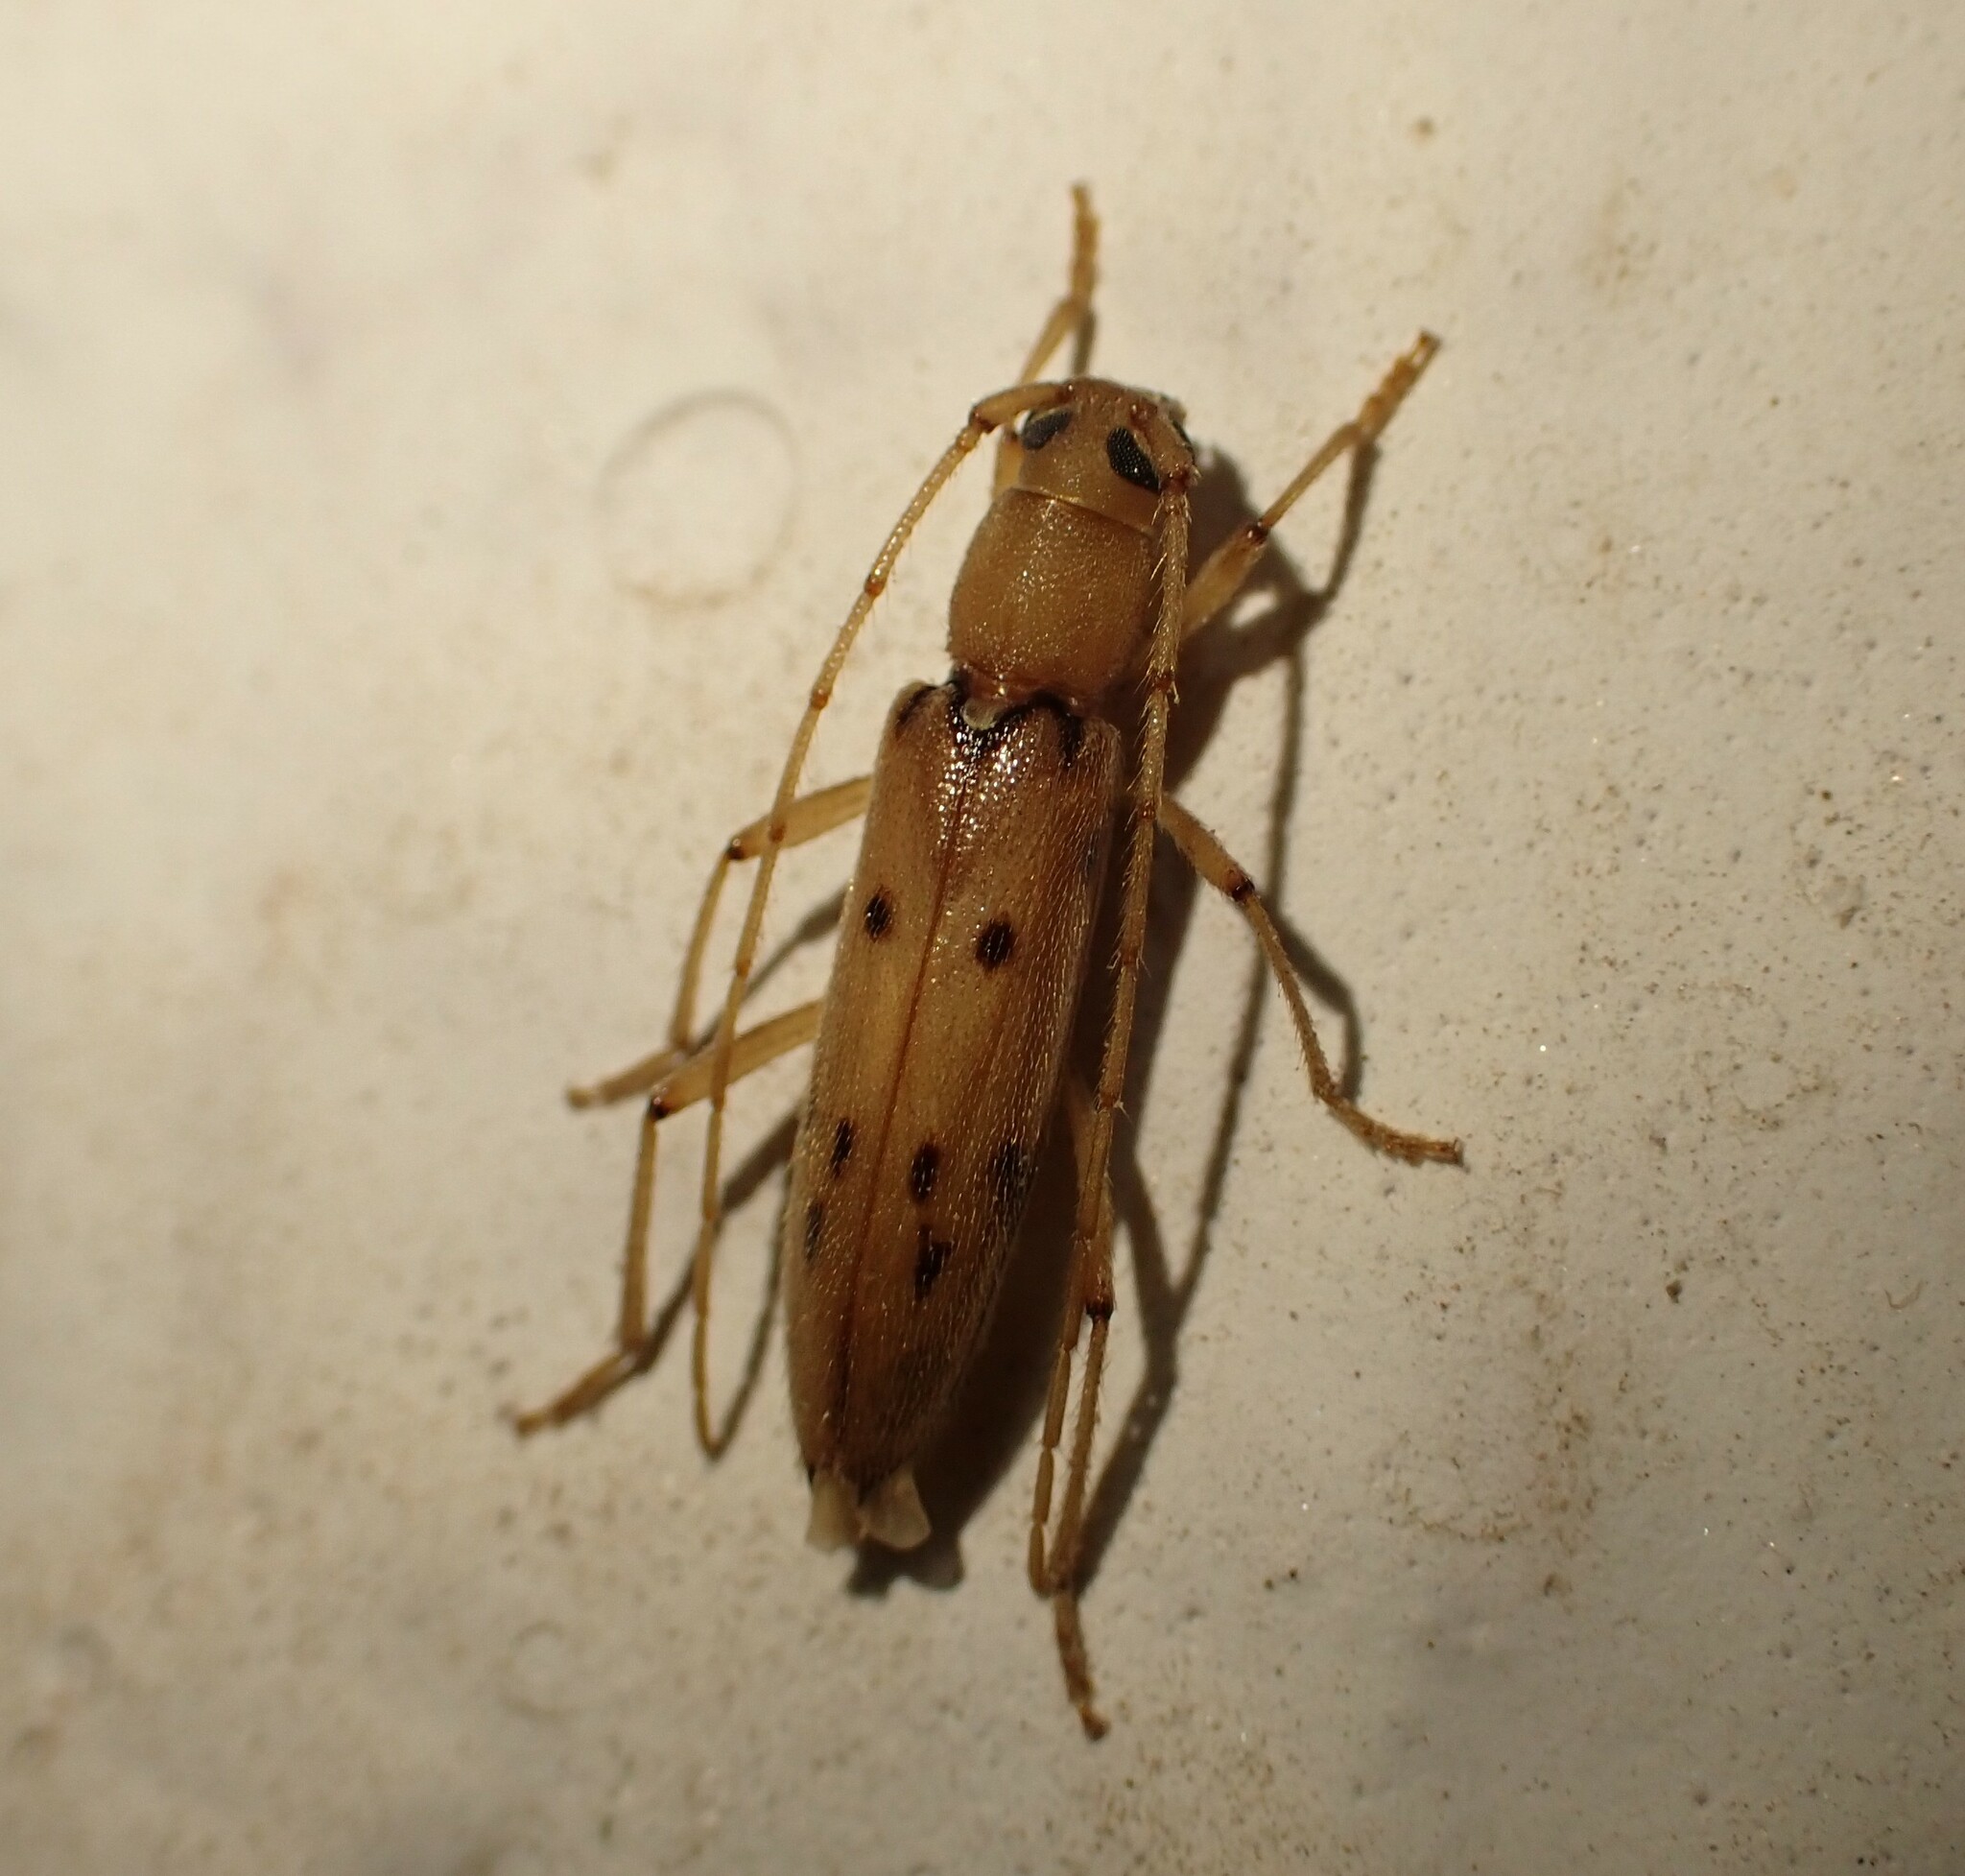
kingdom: Animalia
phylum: Arthropoda
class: Insecta
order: Coleoptera
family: Cerambycidae
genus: Achryson
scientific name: Achryson surinamum
